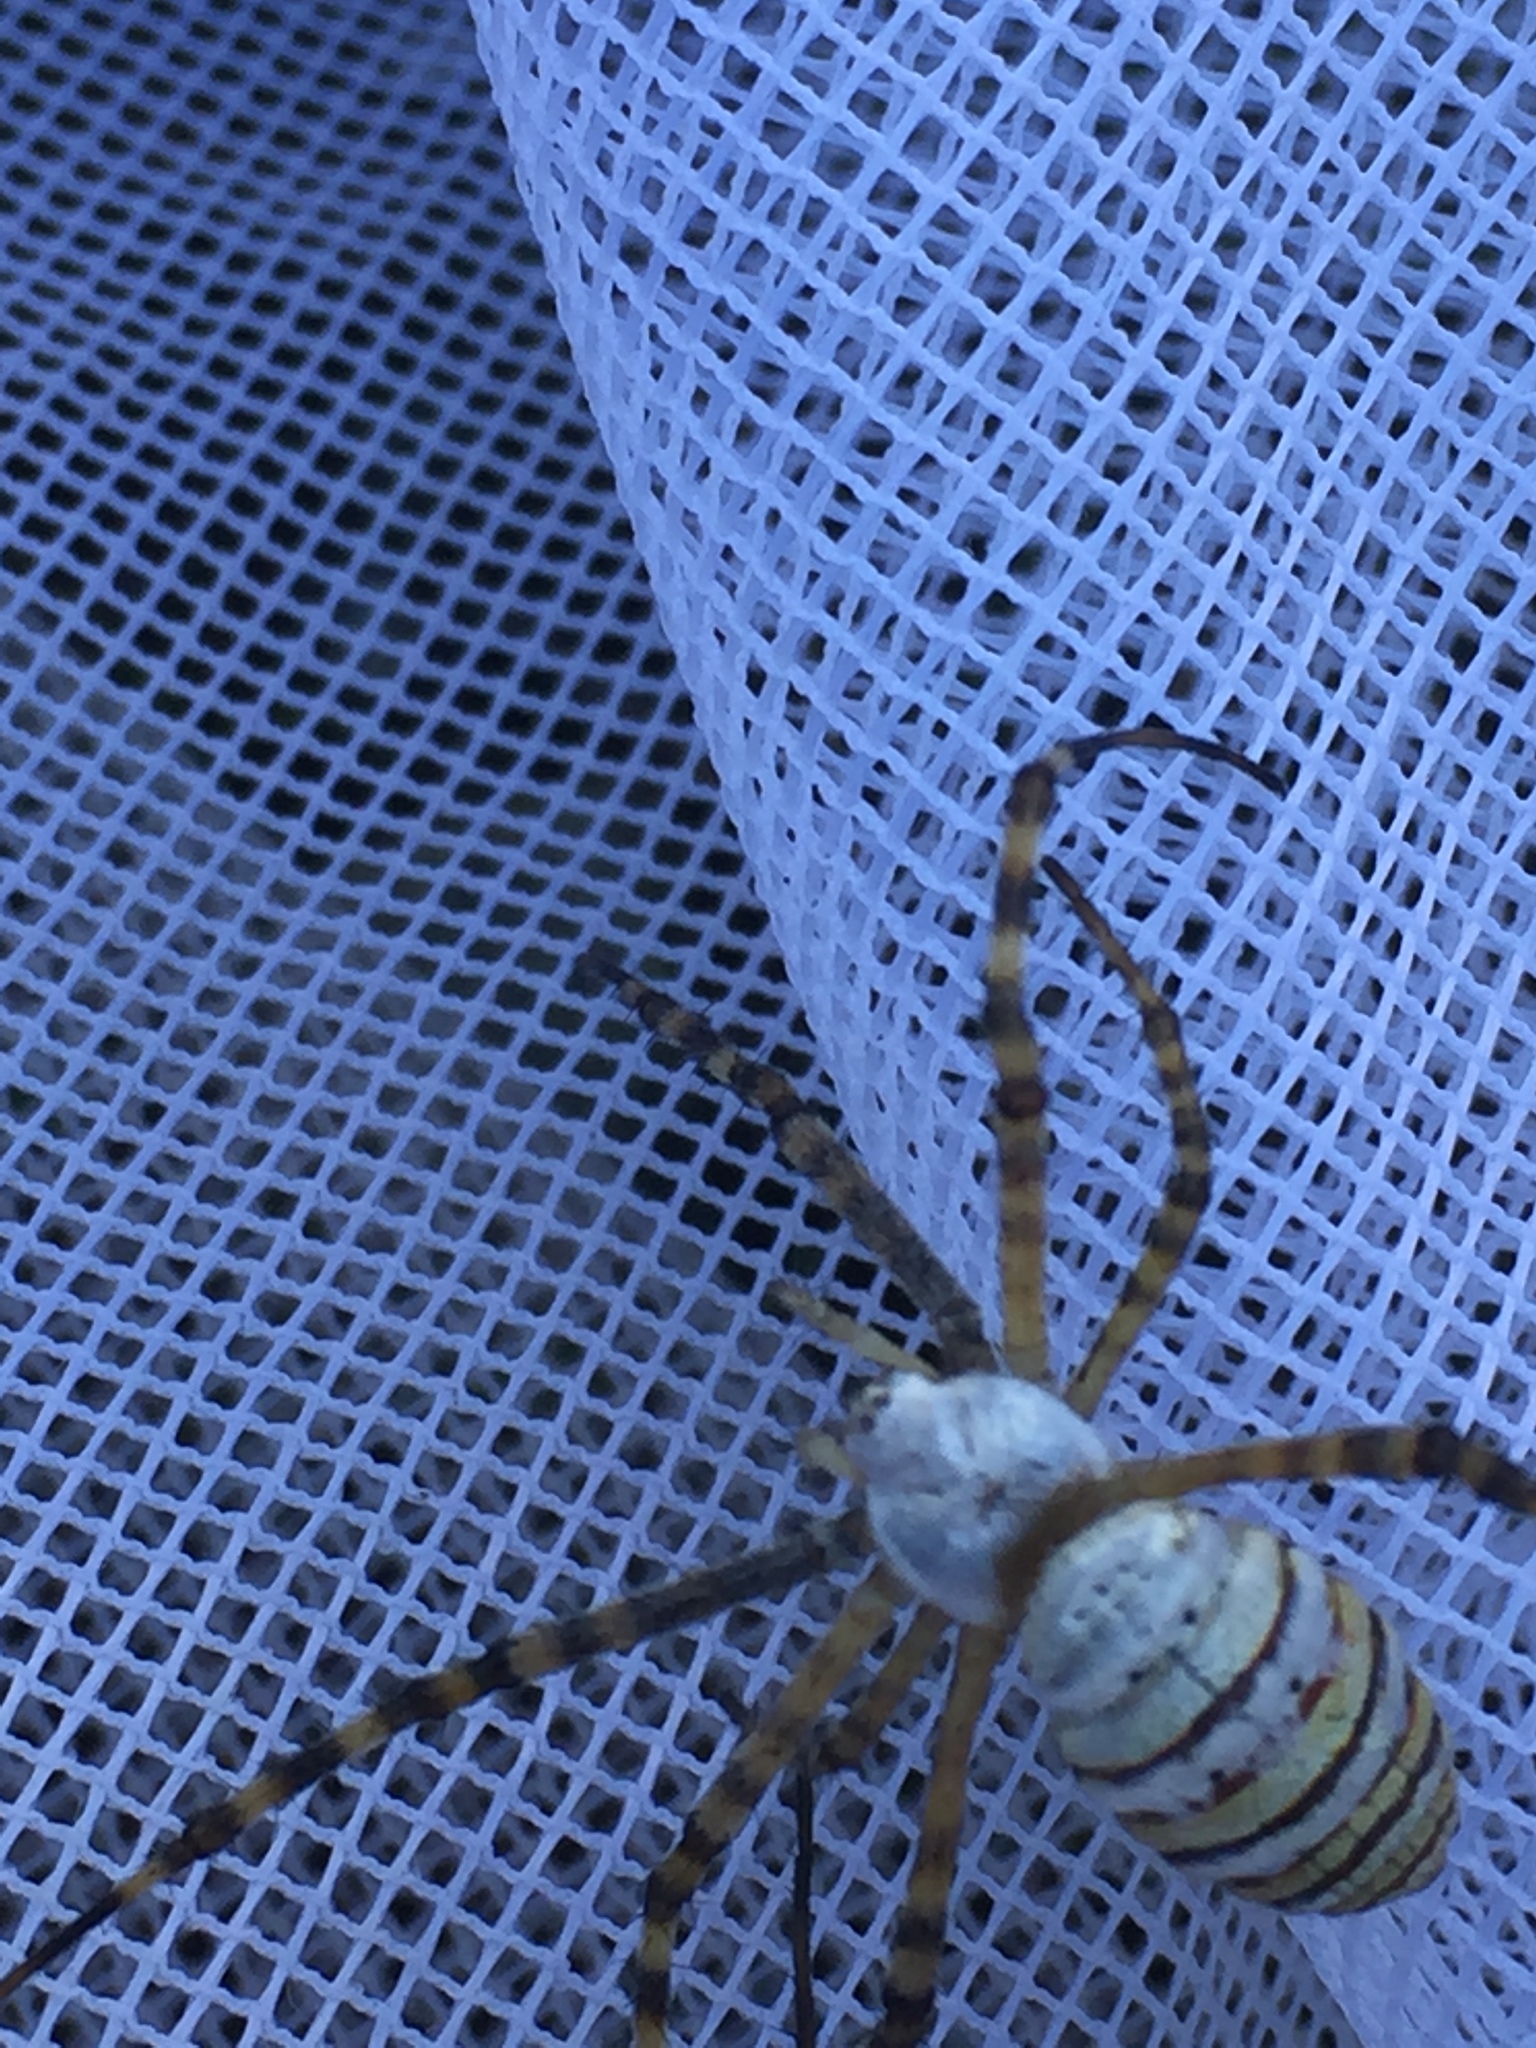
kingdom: Animalia
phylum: Arthropoda
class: Arachnida
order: Araneae
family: Araneidae
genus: Argiope
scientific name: Argiope trifasciata
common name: Banded garden spider
